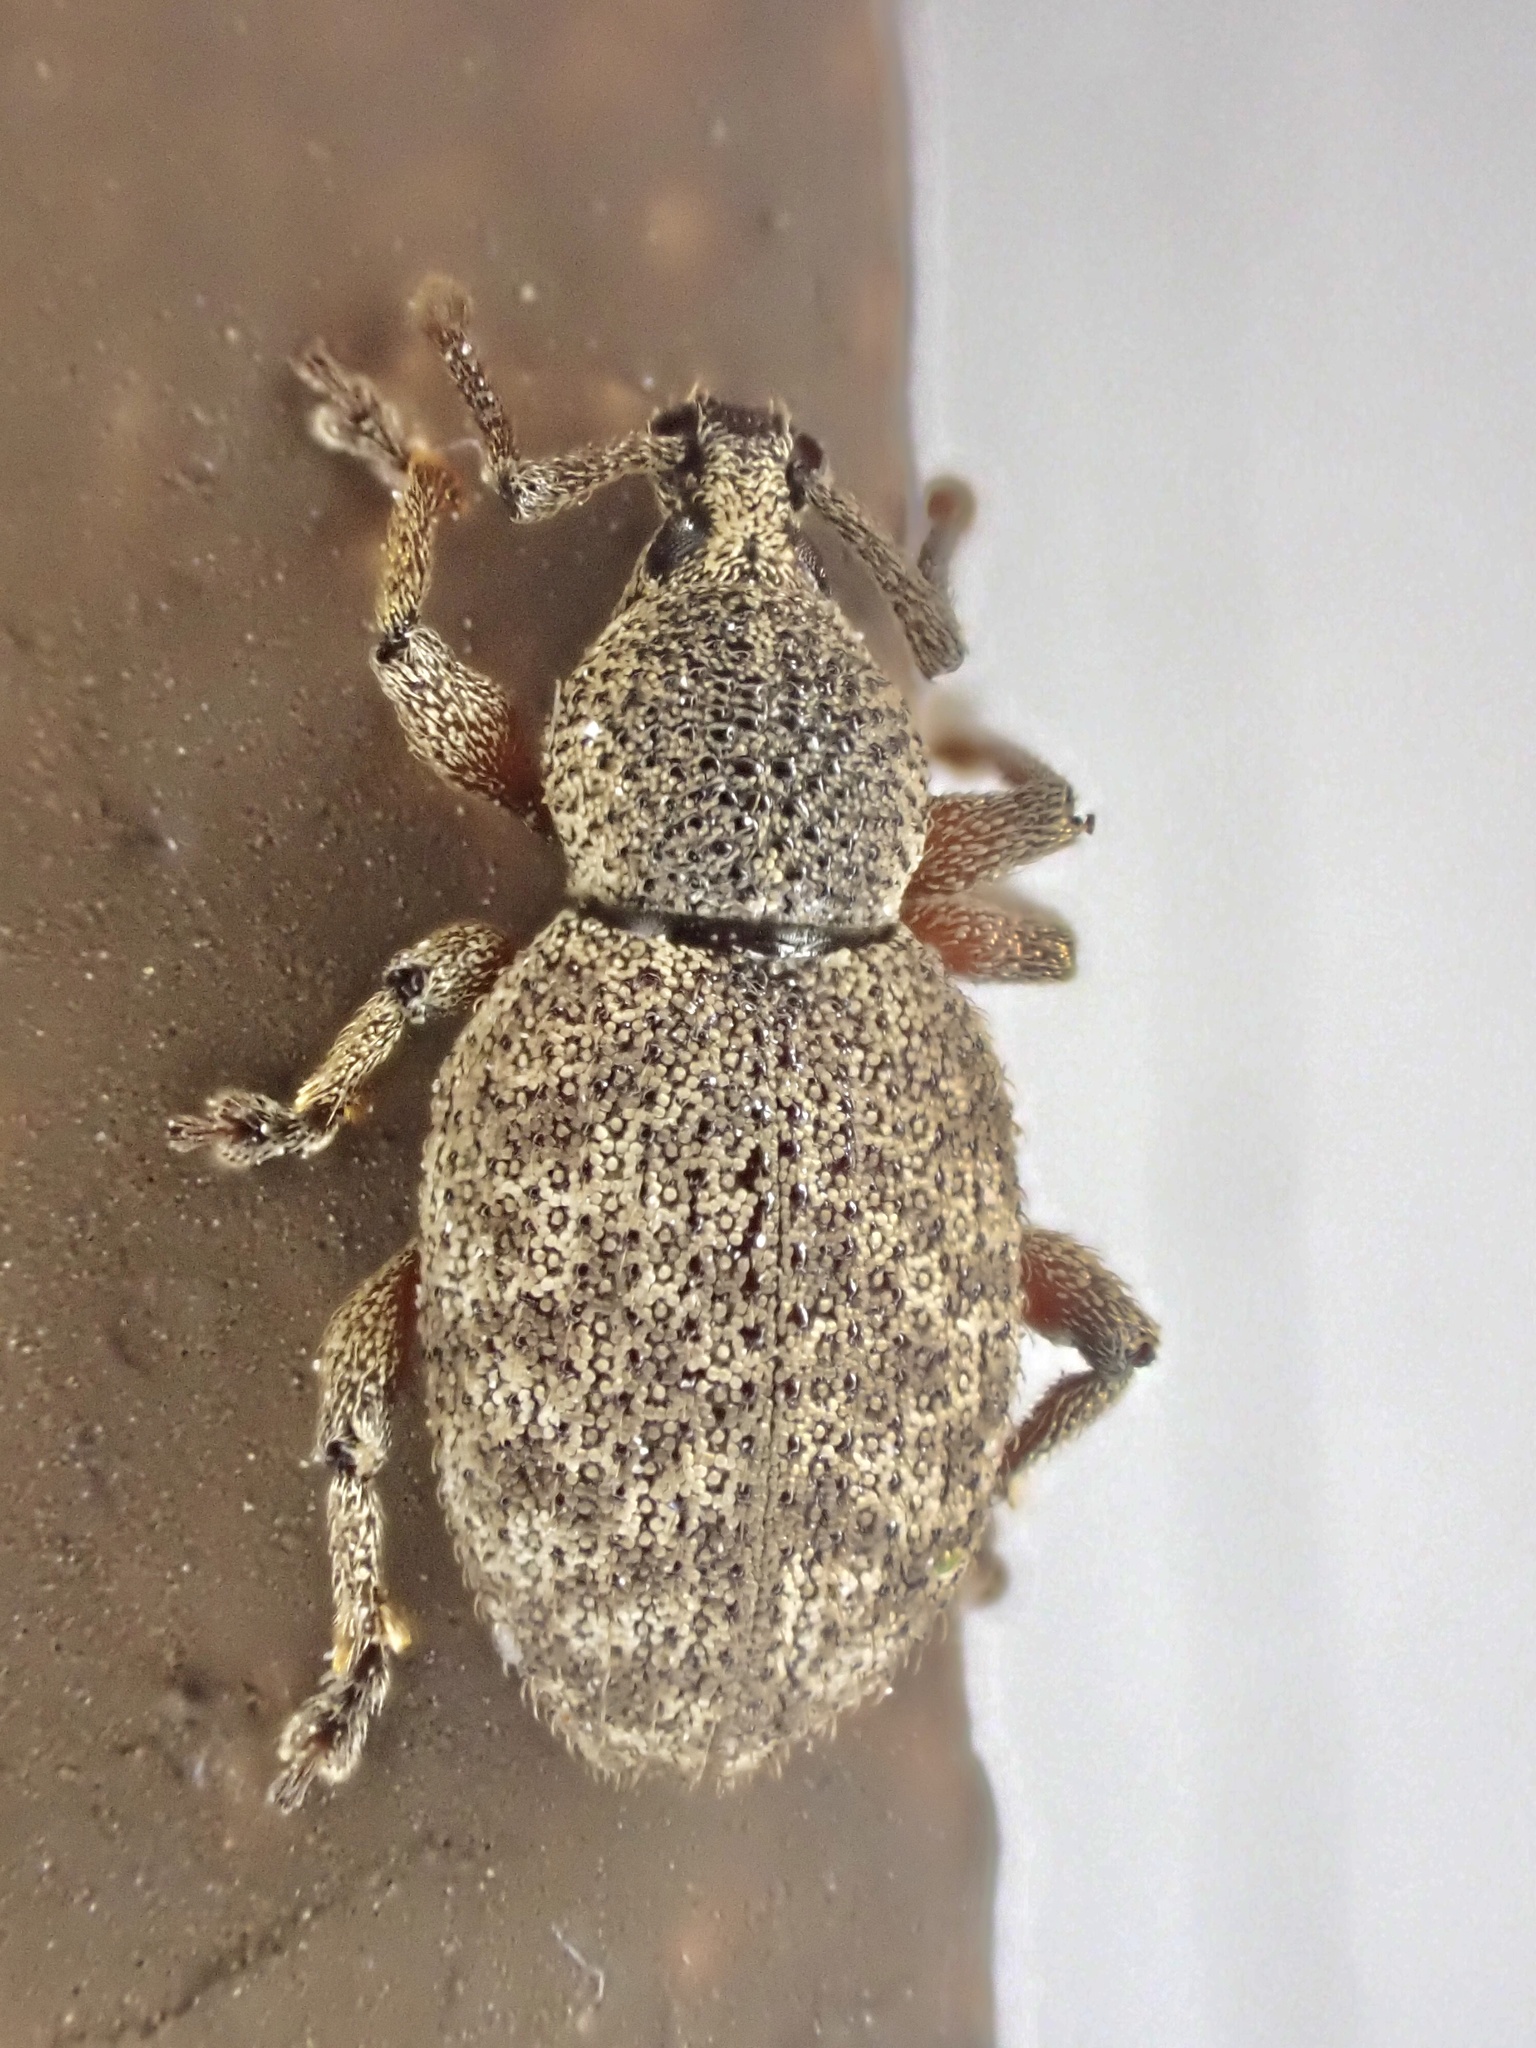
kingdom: Animalia
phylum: Arthropoda
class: Insecta
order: Coleoptera
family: Curculionidae
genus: Otiorhynchus
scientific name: Otiorhynchus singularis
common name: Clay-coloured weevil
